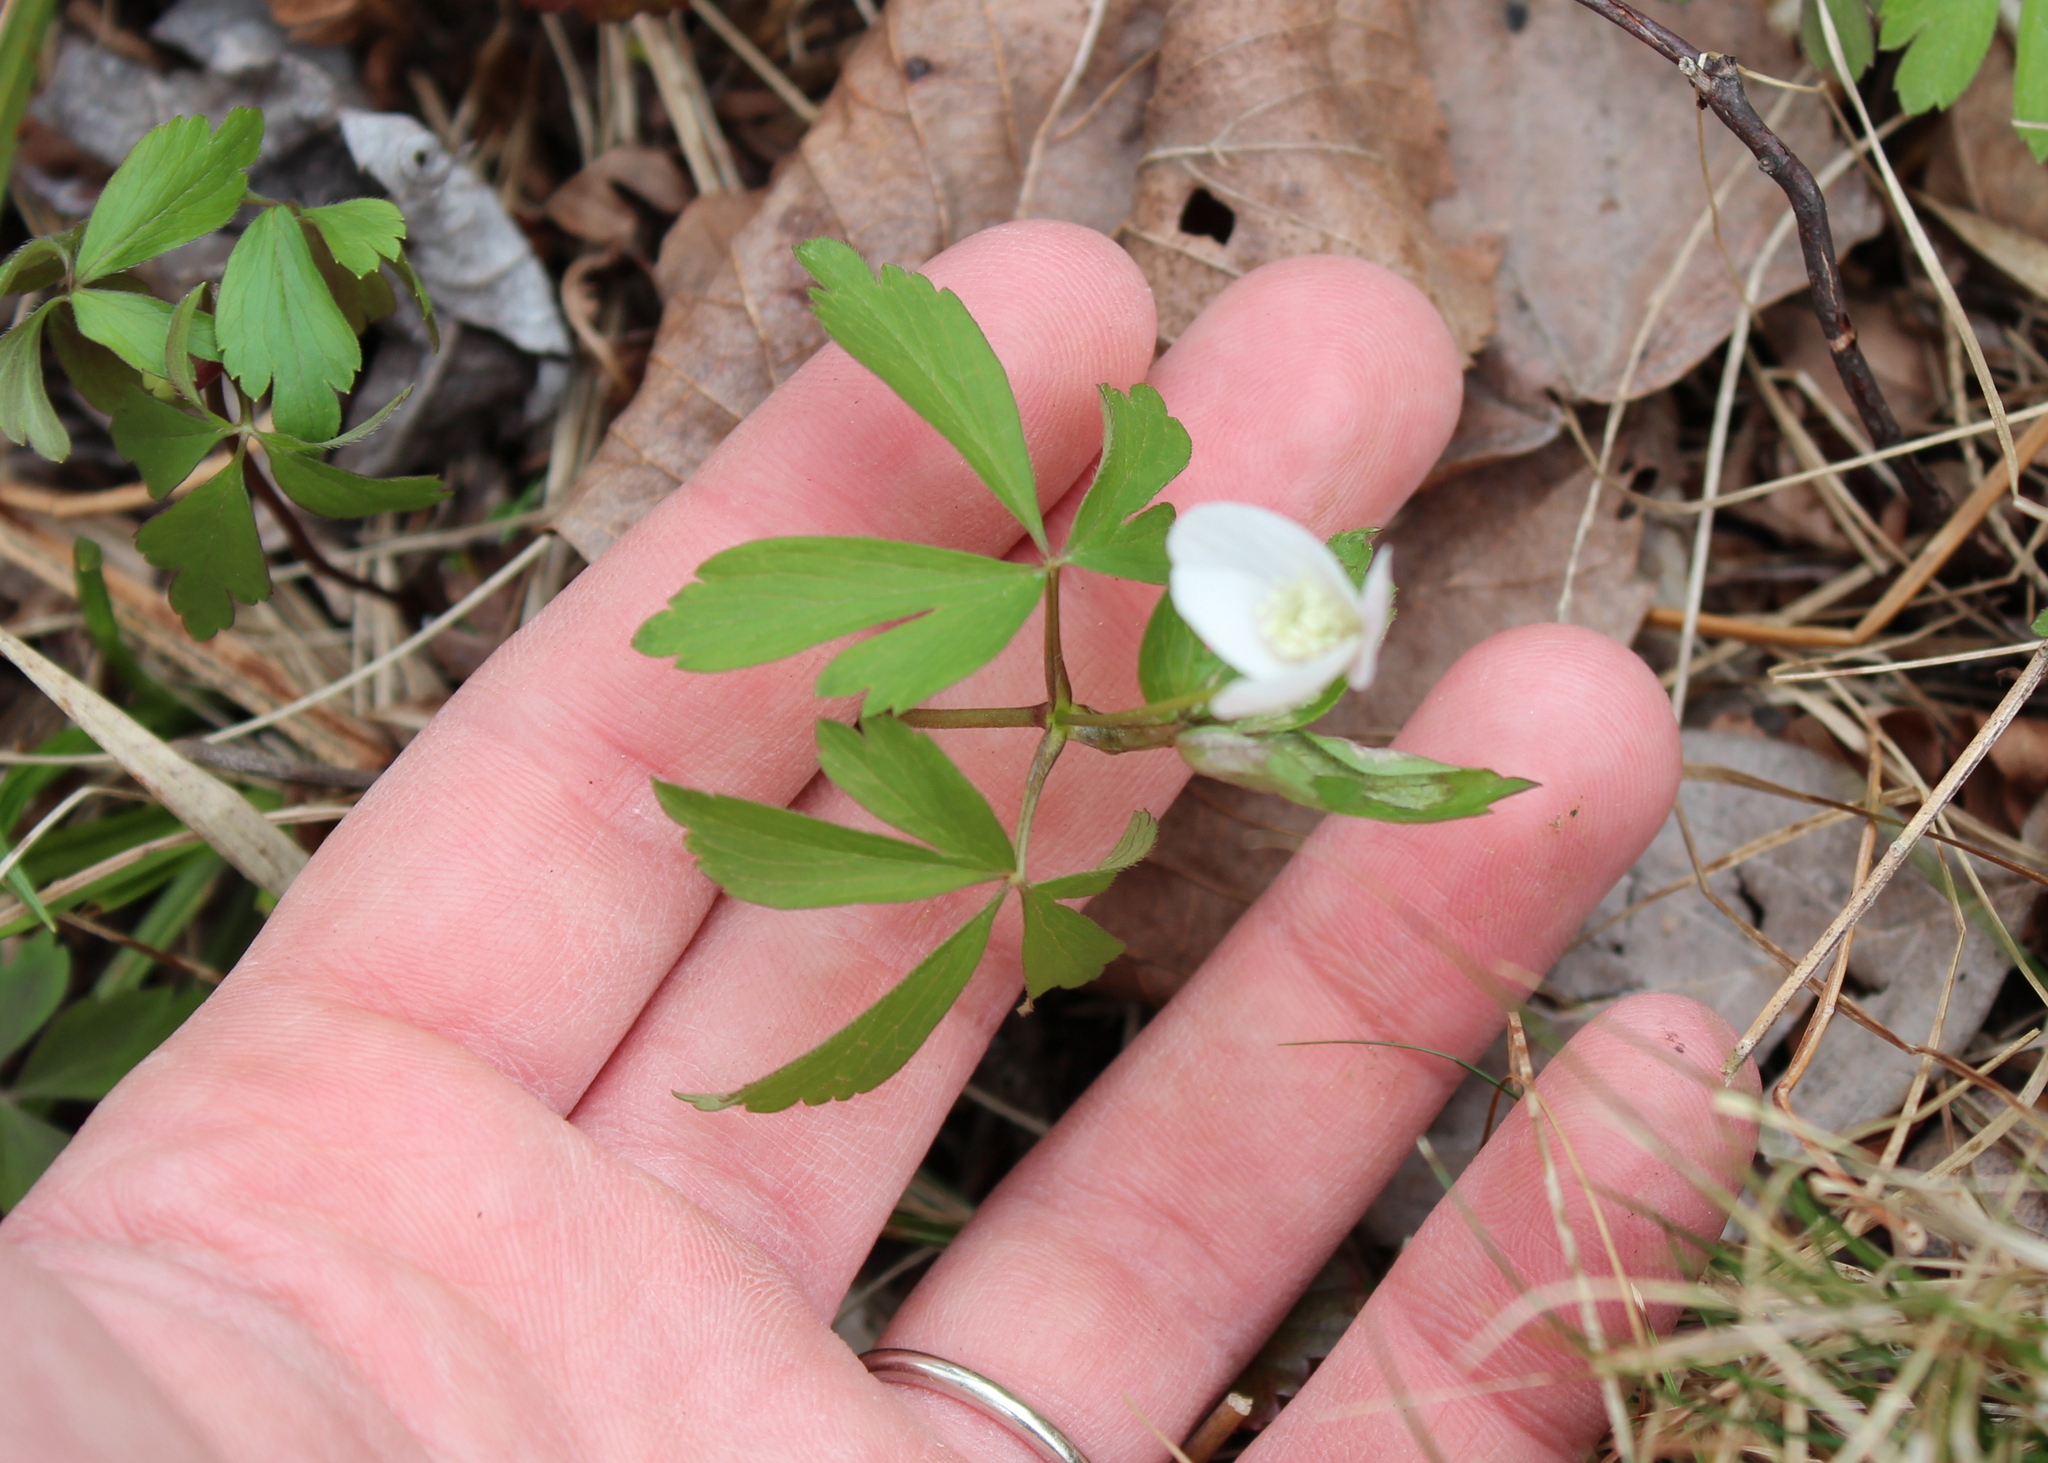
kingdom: Plantae
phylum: Tracheophyta
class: Magnoliopsida
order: Ranunculales
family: Ranunculaceae
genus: Anemone
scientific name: Anemone quinquefolia
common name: Wood anemone
